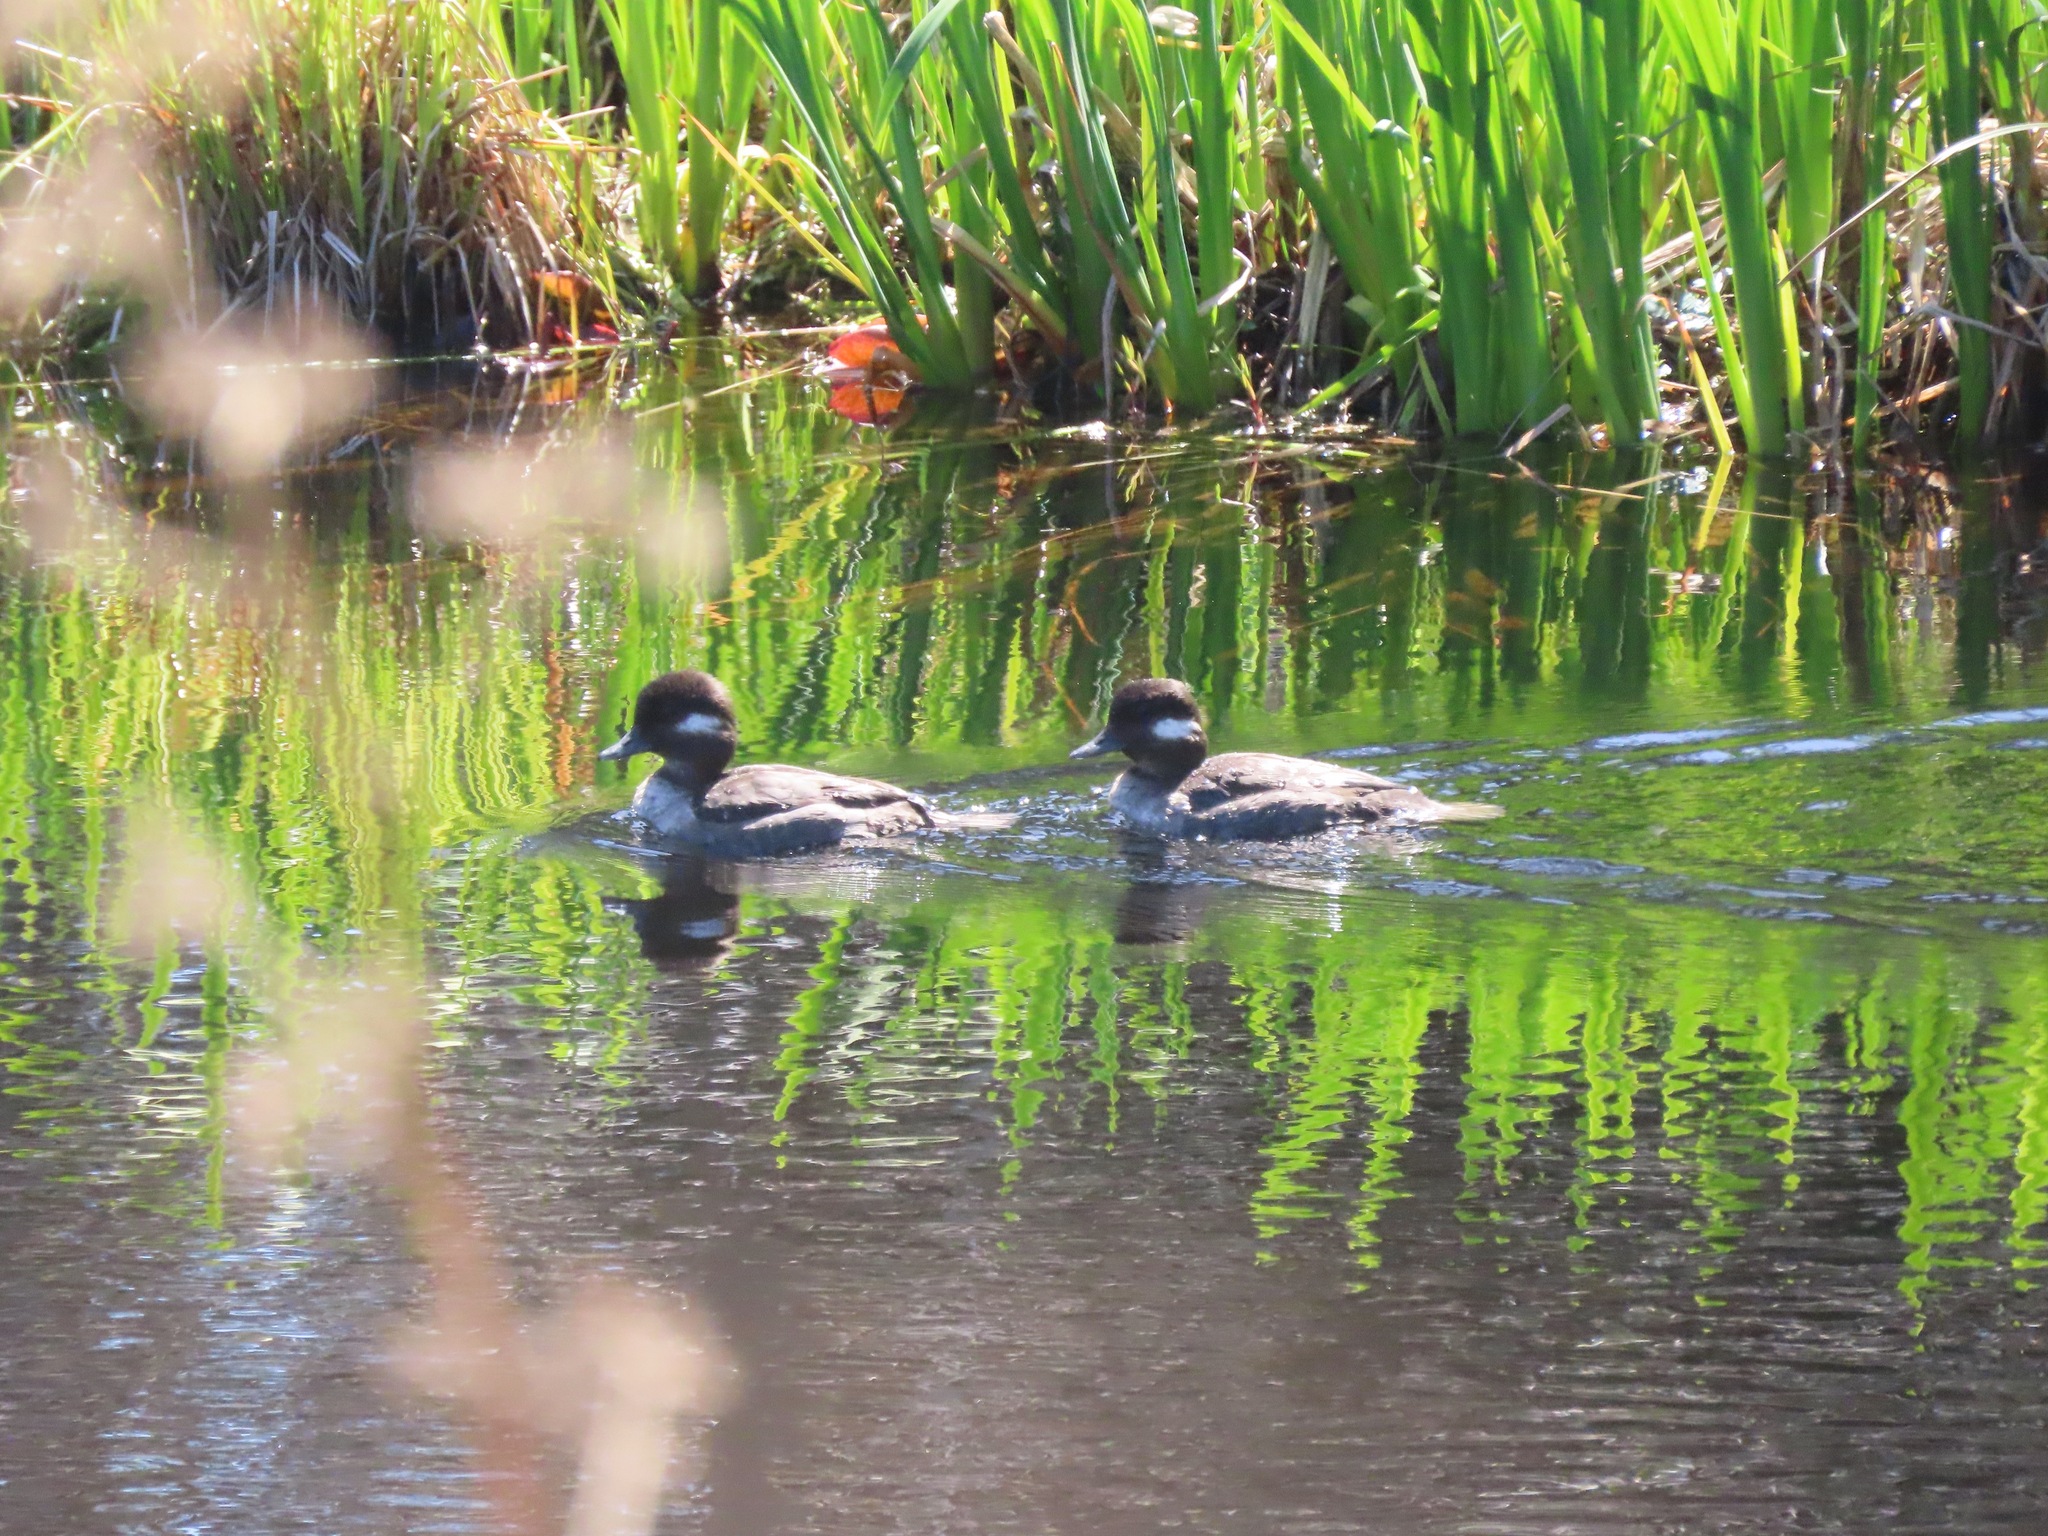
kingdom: Animalia
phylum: Chordata
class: Aves
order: Anseriformes
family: Anatidae
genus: Bucephala
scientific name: Bucephala albeola
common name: Bufflehead
